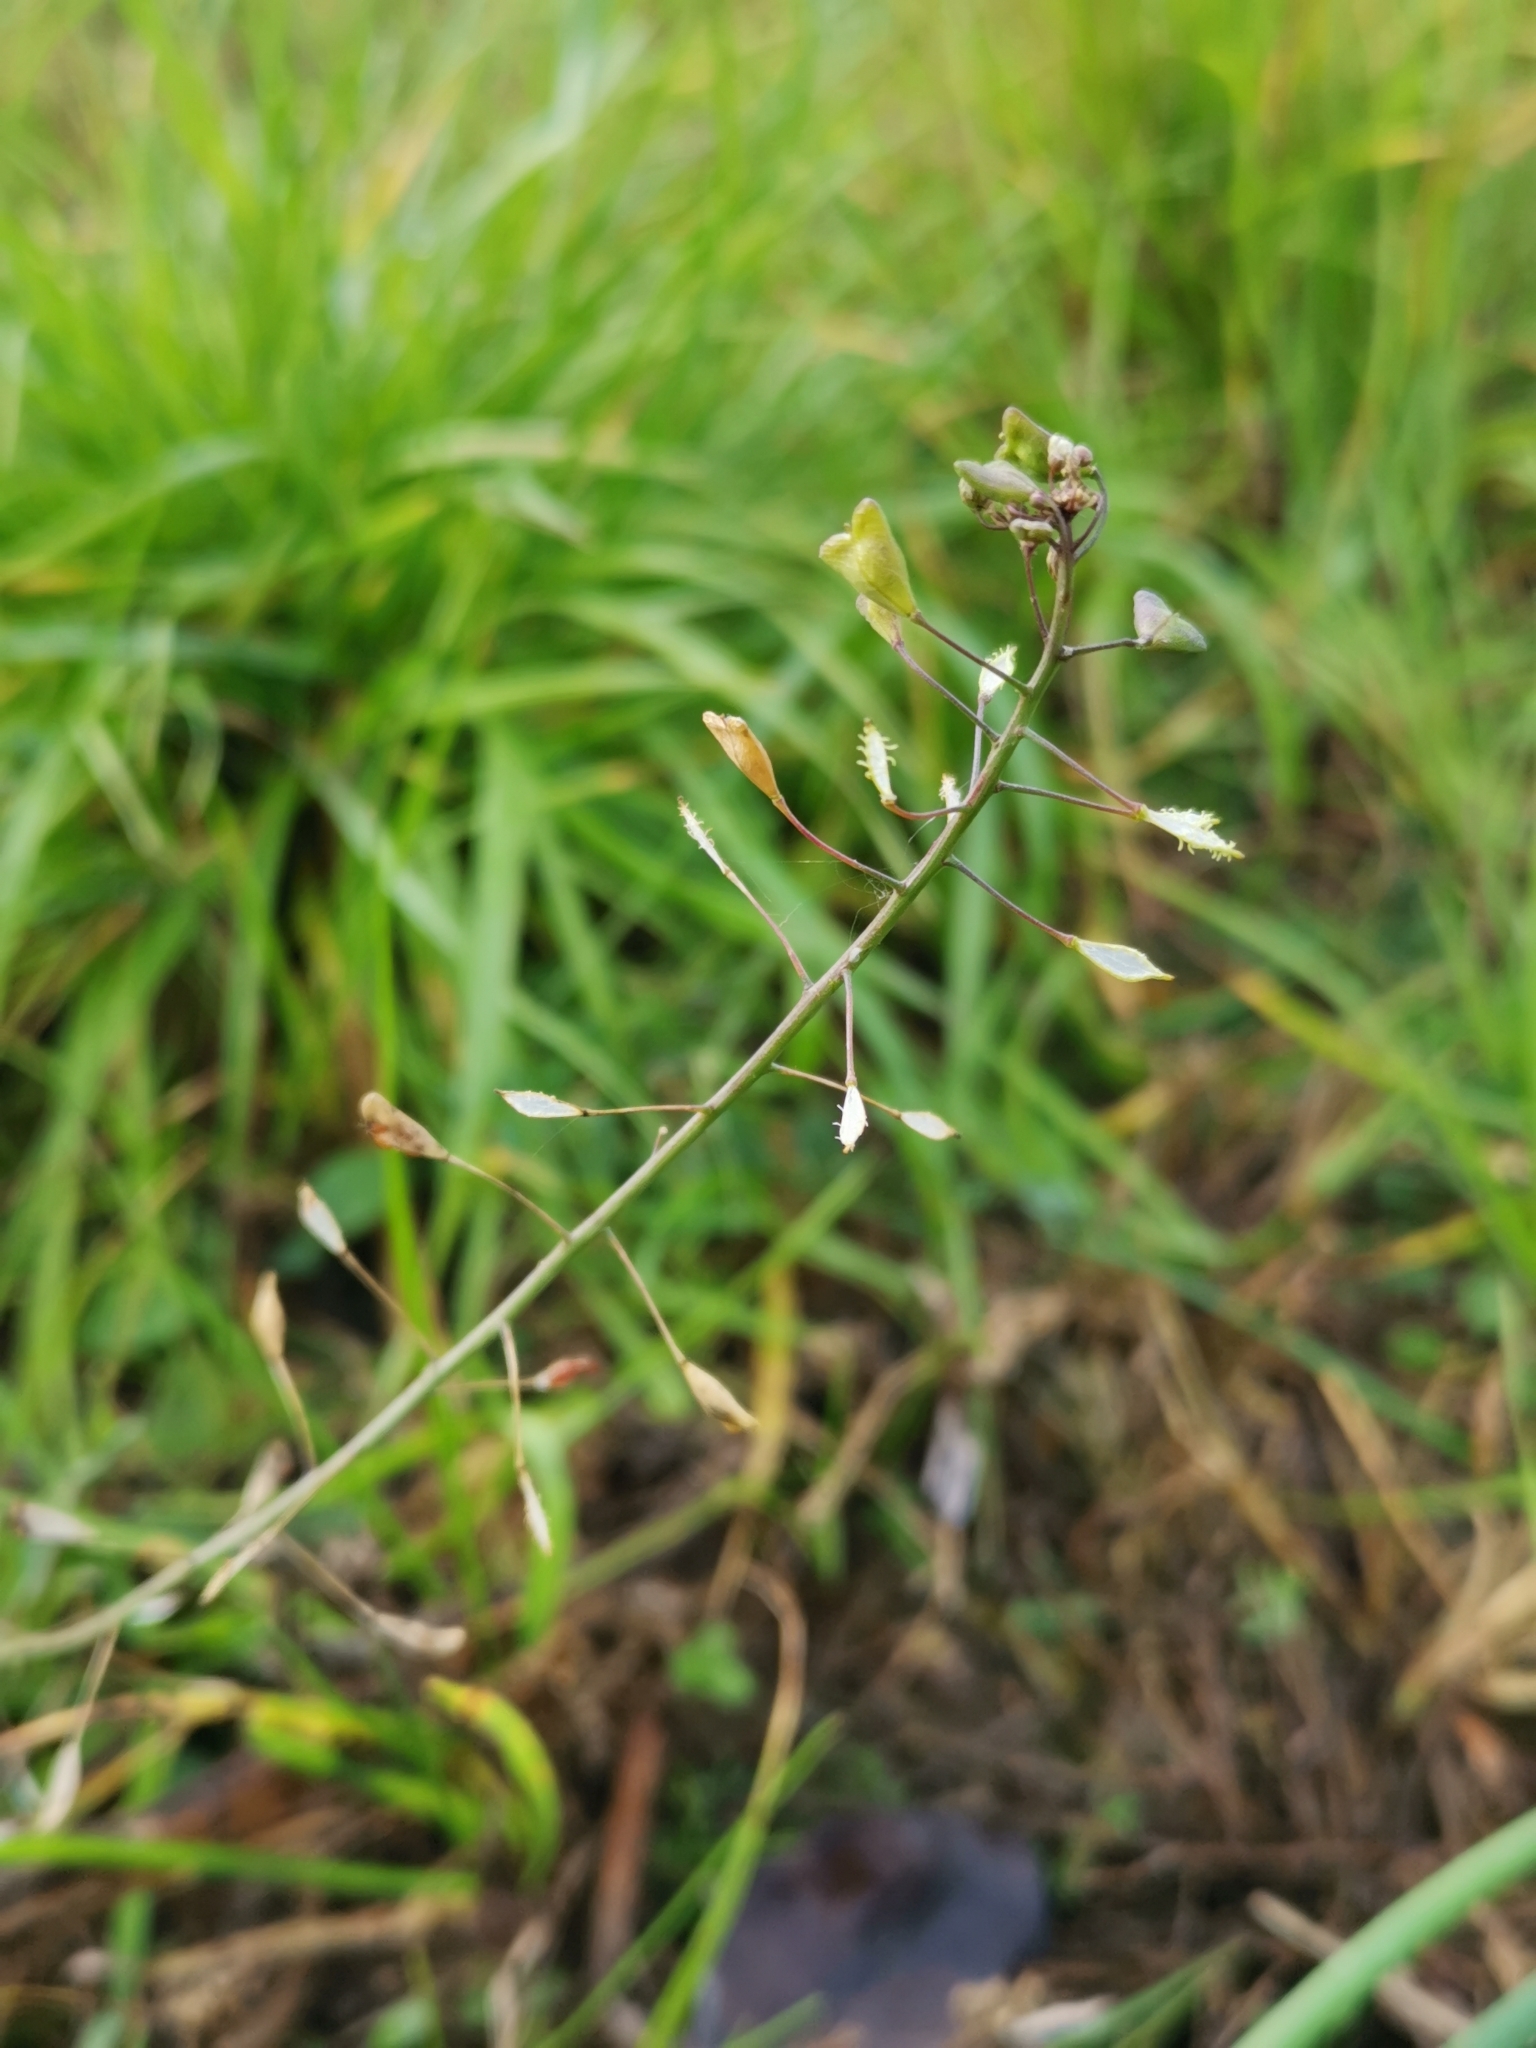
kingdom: Plantae
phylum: Tracheophyta
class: Magnoliopsida
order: Brassicales
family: Brassicaceae
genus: Capsella
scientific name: Capsella bursa-pastoris
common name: Shepherd's purse
